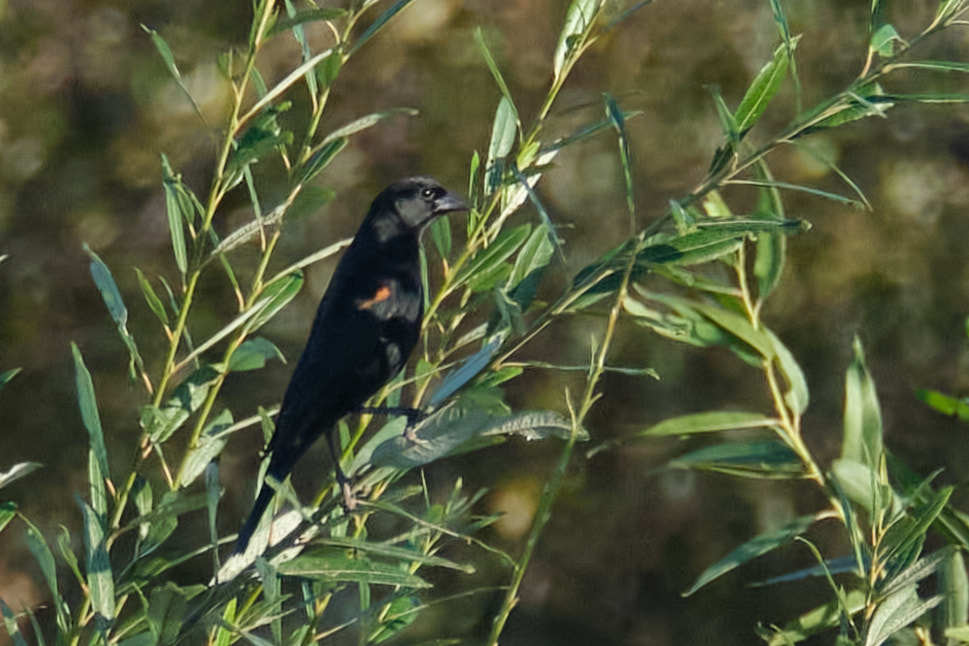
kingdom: Animalia
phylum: Chordata
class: Aves
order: Passeriformes
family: Icteridae
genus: Agelaius
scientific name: Agelaius phoeniceus
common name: Red-winged blackbird
